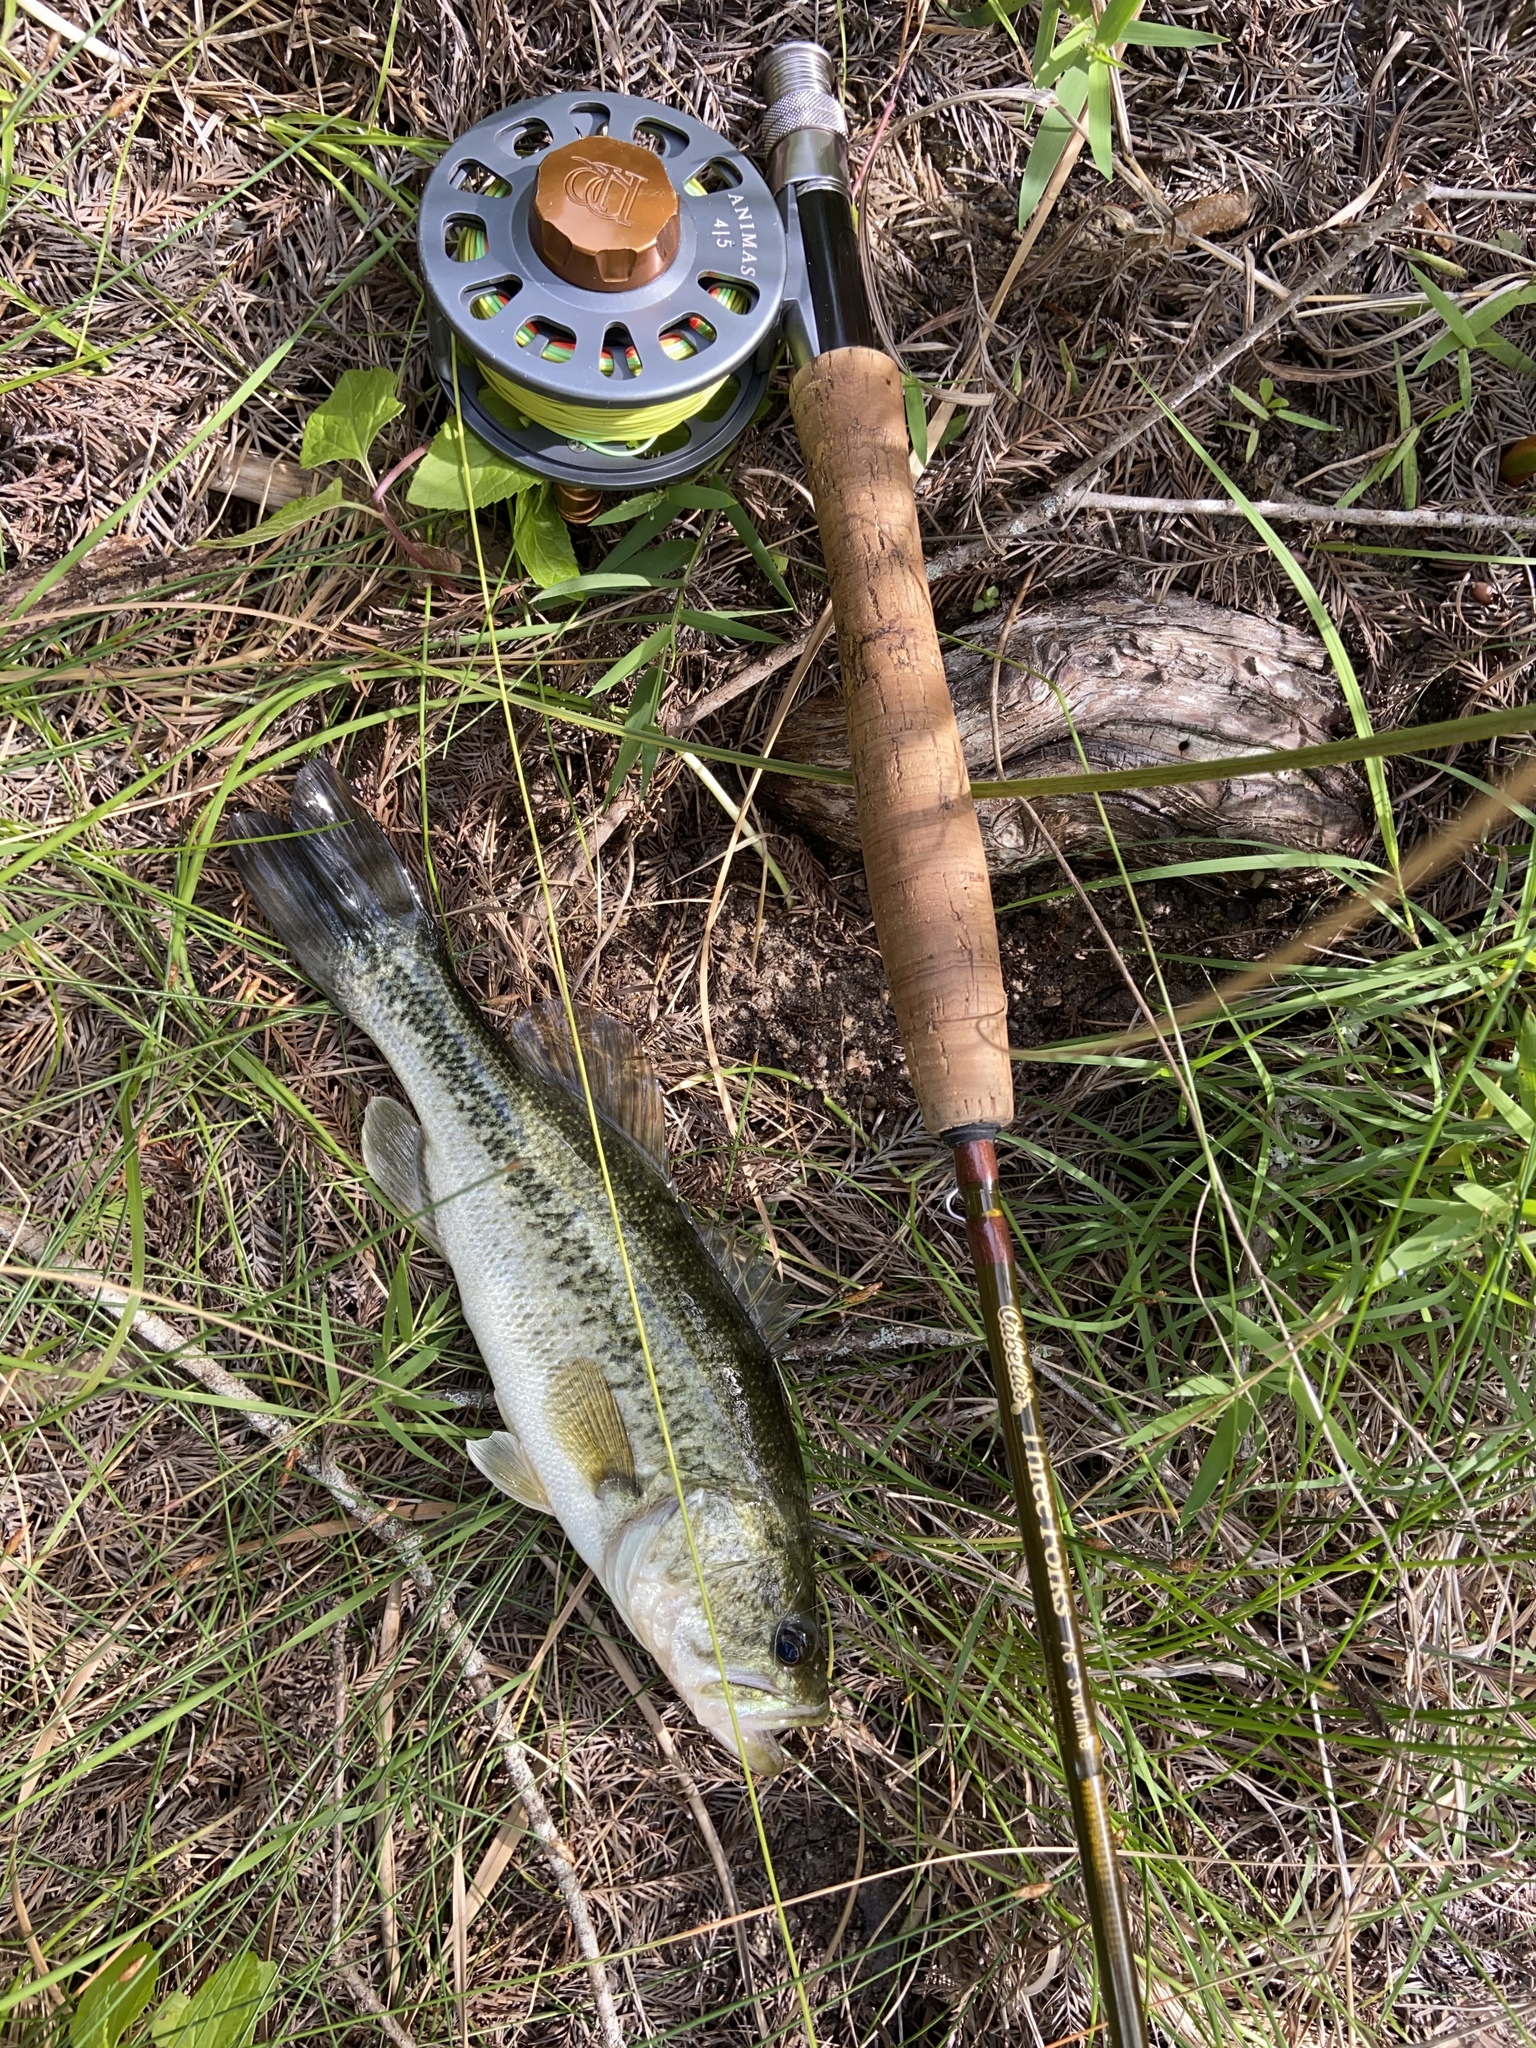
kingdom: Animalia
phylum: Chordata
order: Perciformes
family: Centrarchidae
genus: Micropterus
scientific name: Micropterus
